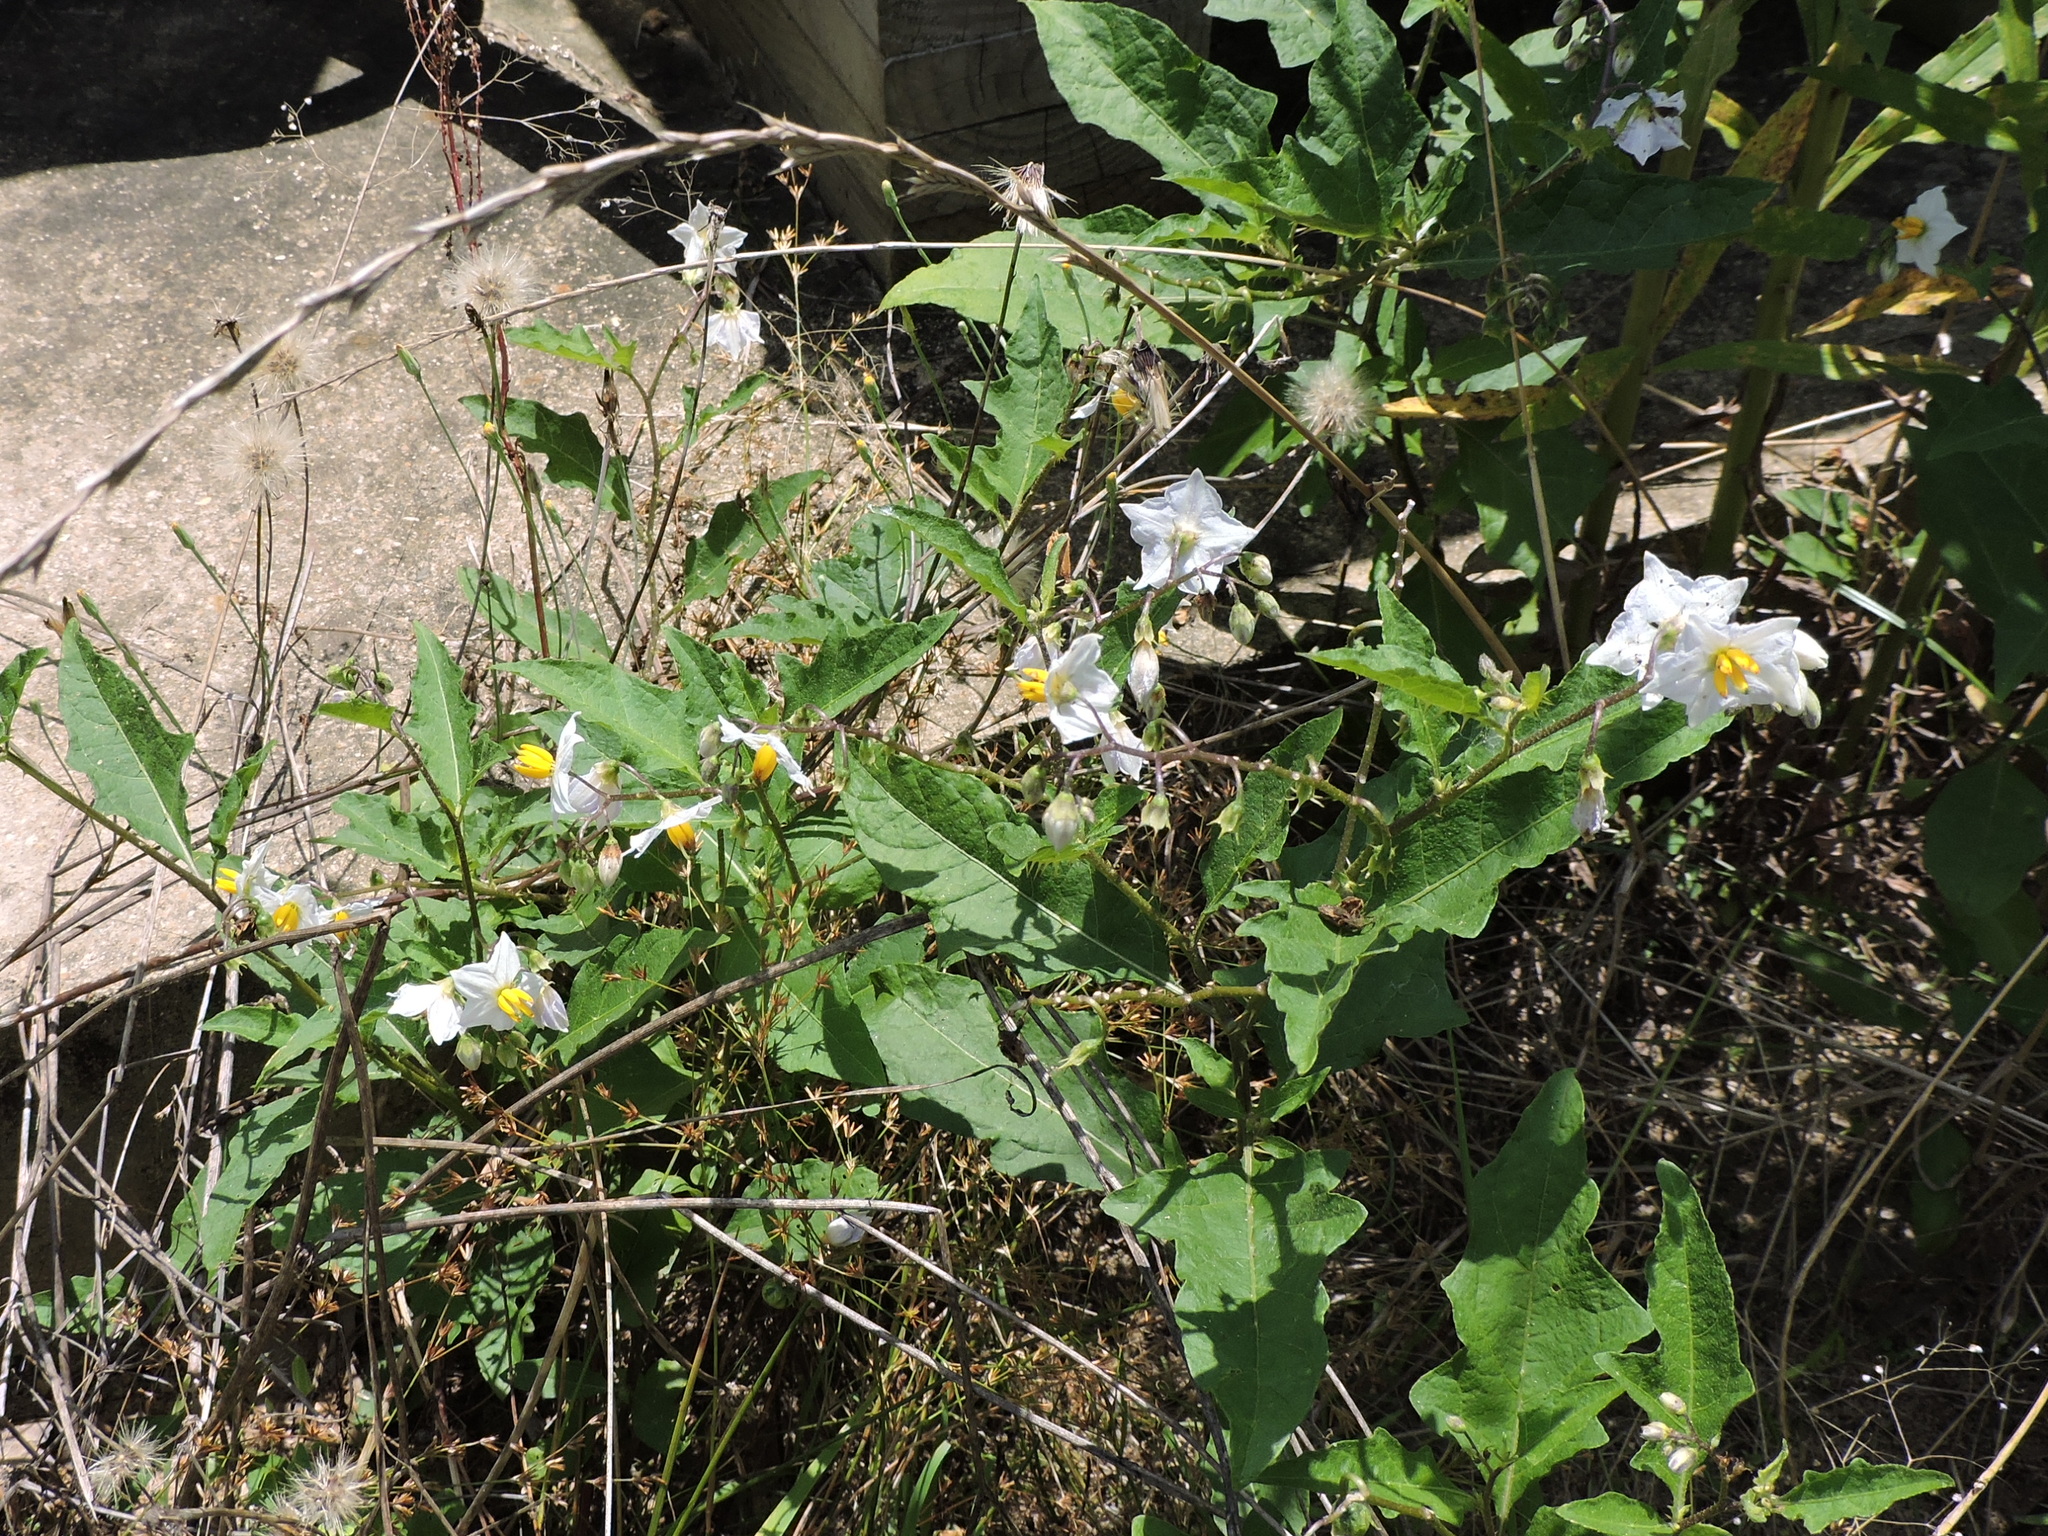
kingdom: Plantae
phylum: Tracheophyta
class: Magnoliopsida
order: Solanales
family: Solanaceae
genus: Solanum
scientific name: Solanum carolinense
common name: Horse-nettle
